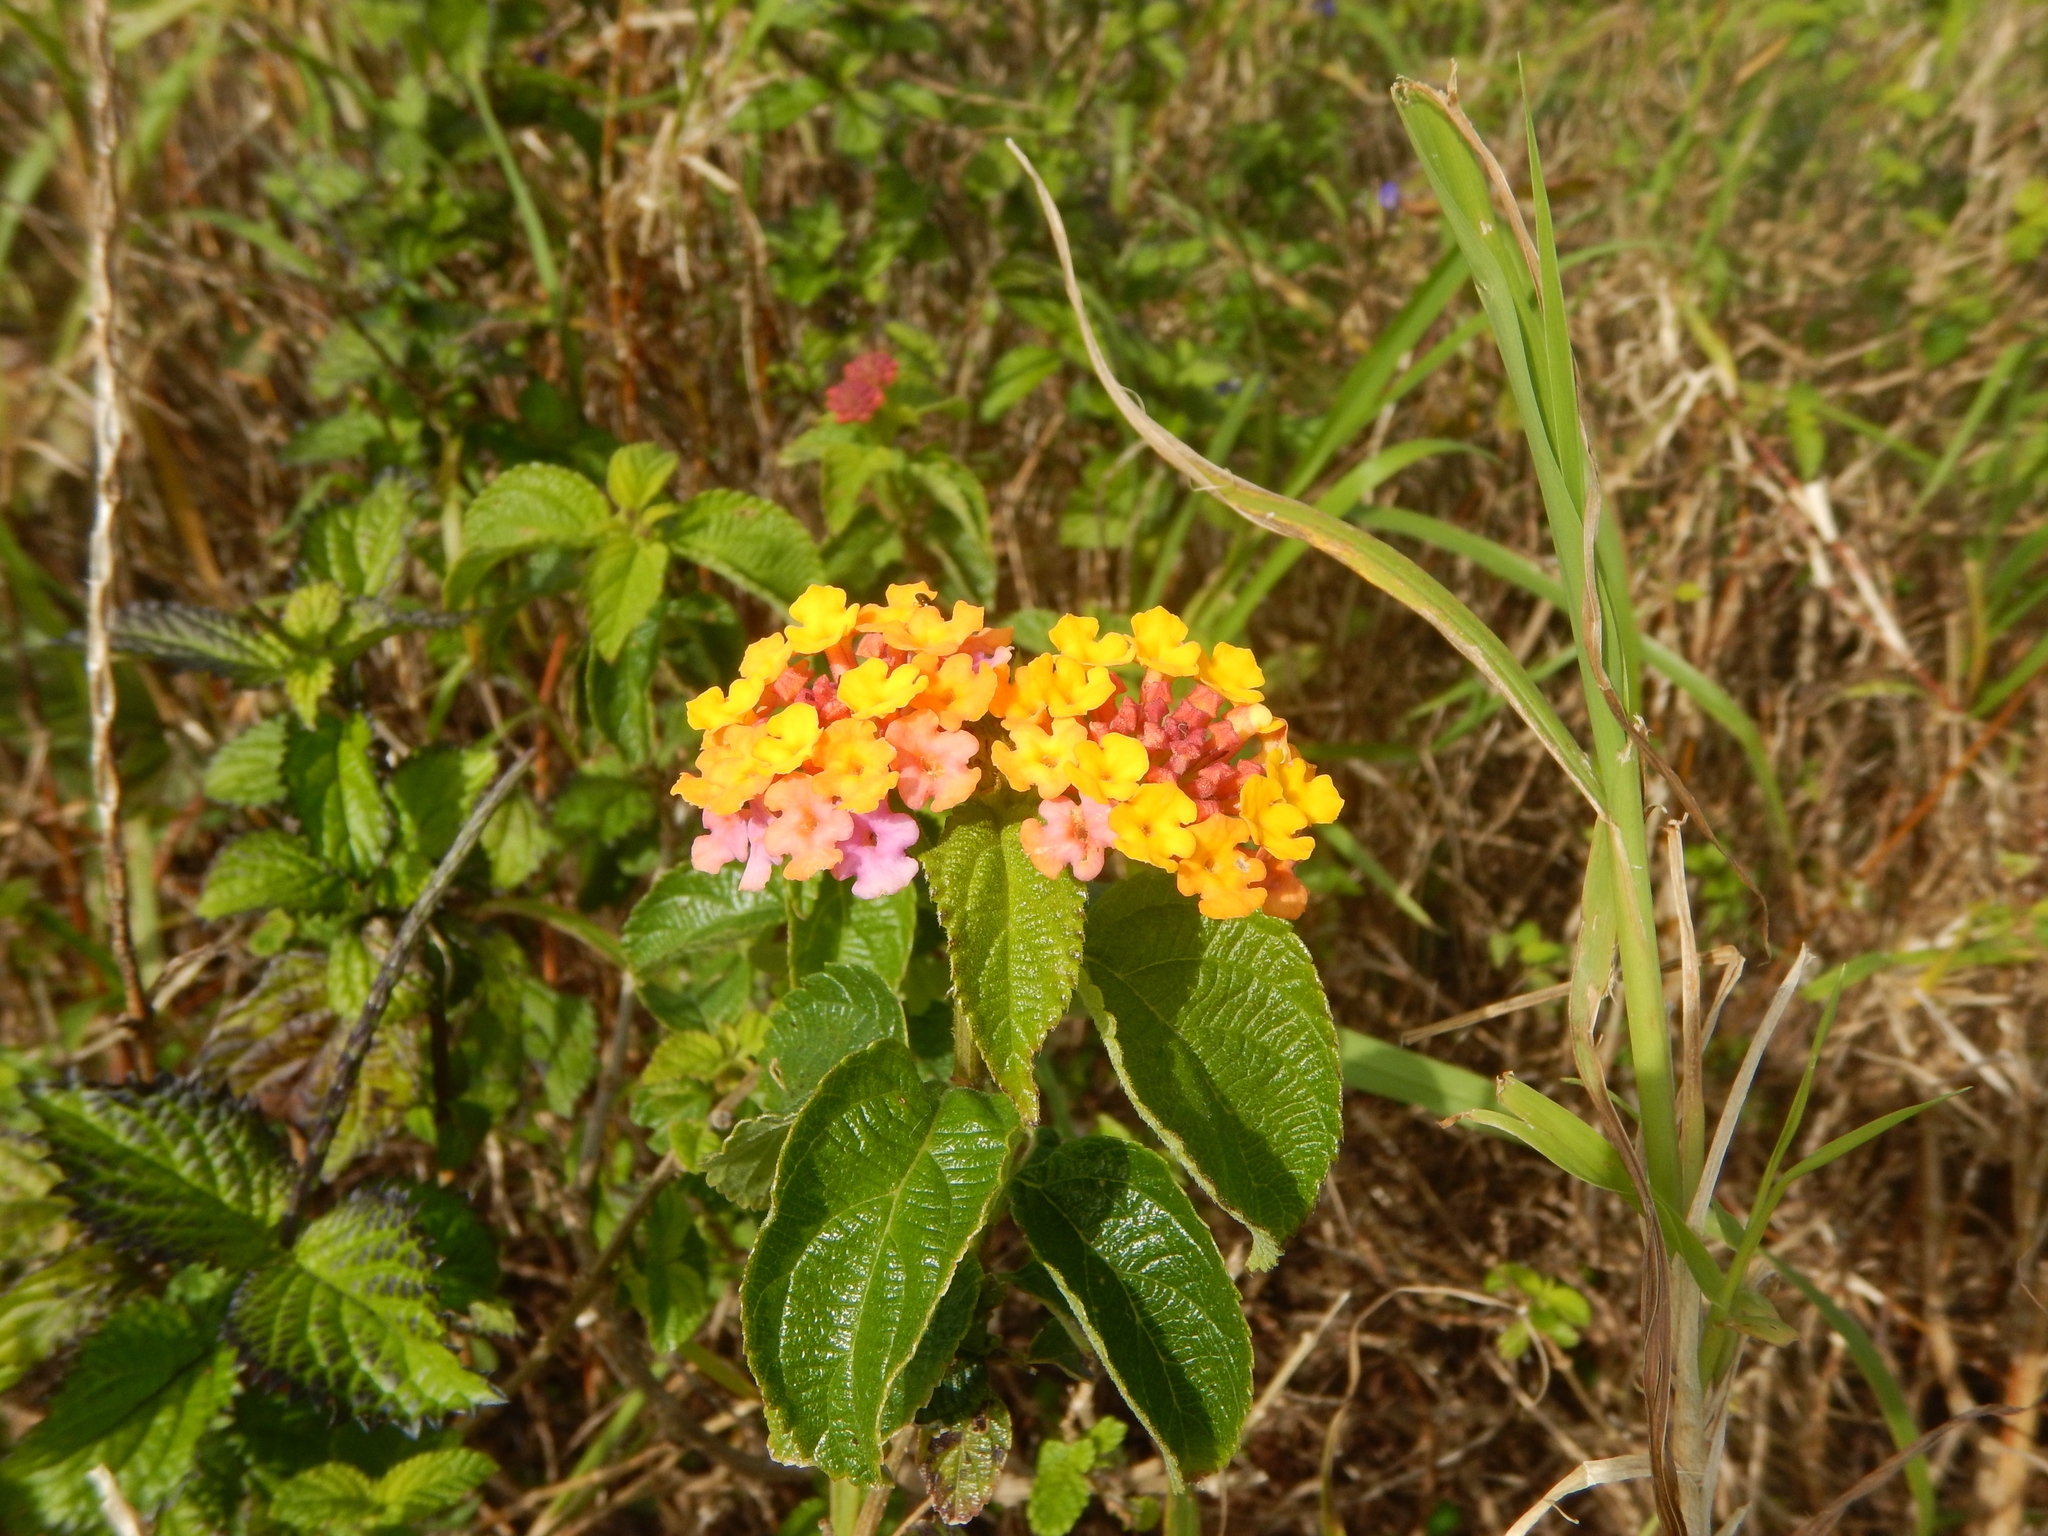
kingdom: Plantae
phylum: Tracheophyta
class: Magnoliopsida
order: Lamiales
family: Verbenaceae
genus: Lantana
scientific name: Lantana camara
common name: Lantana
